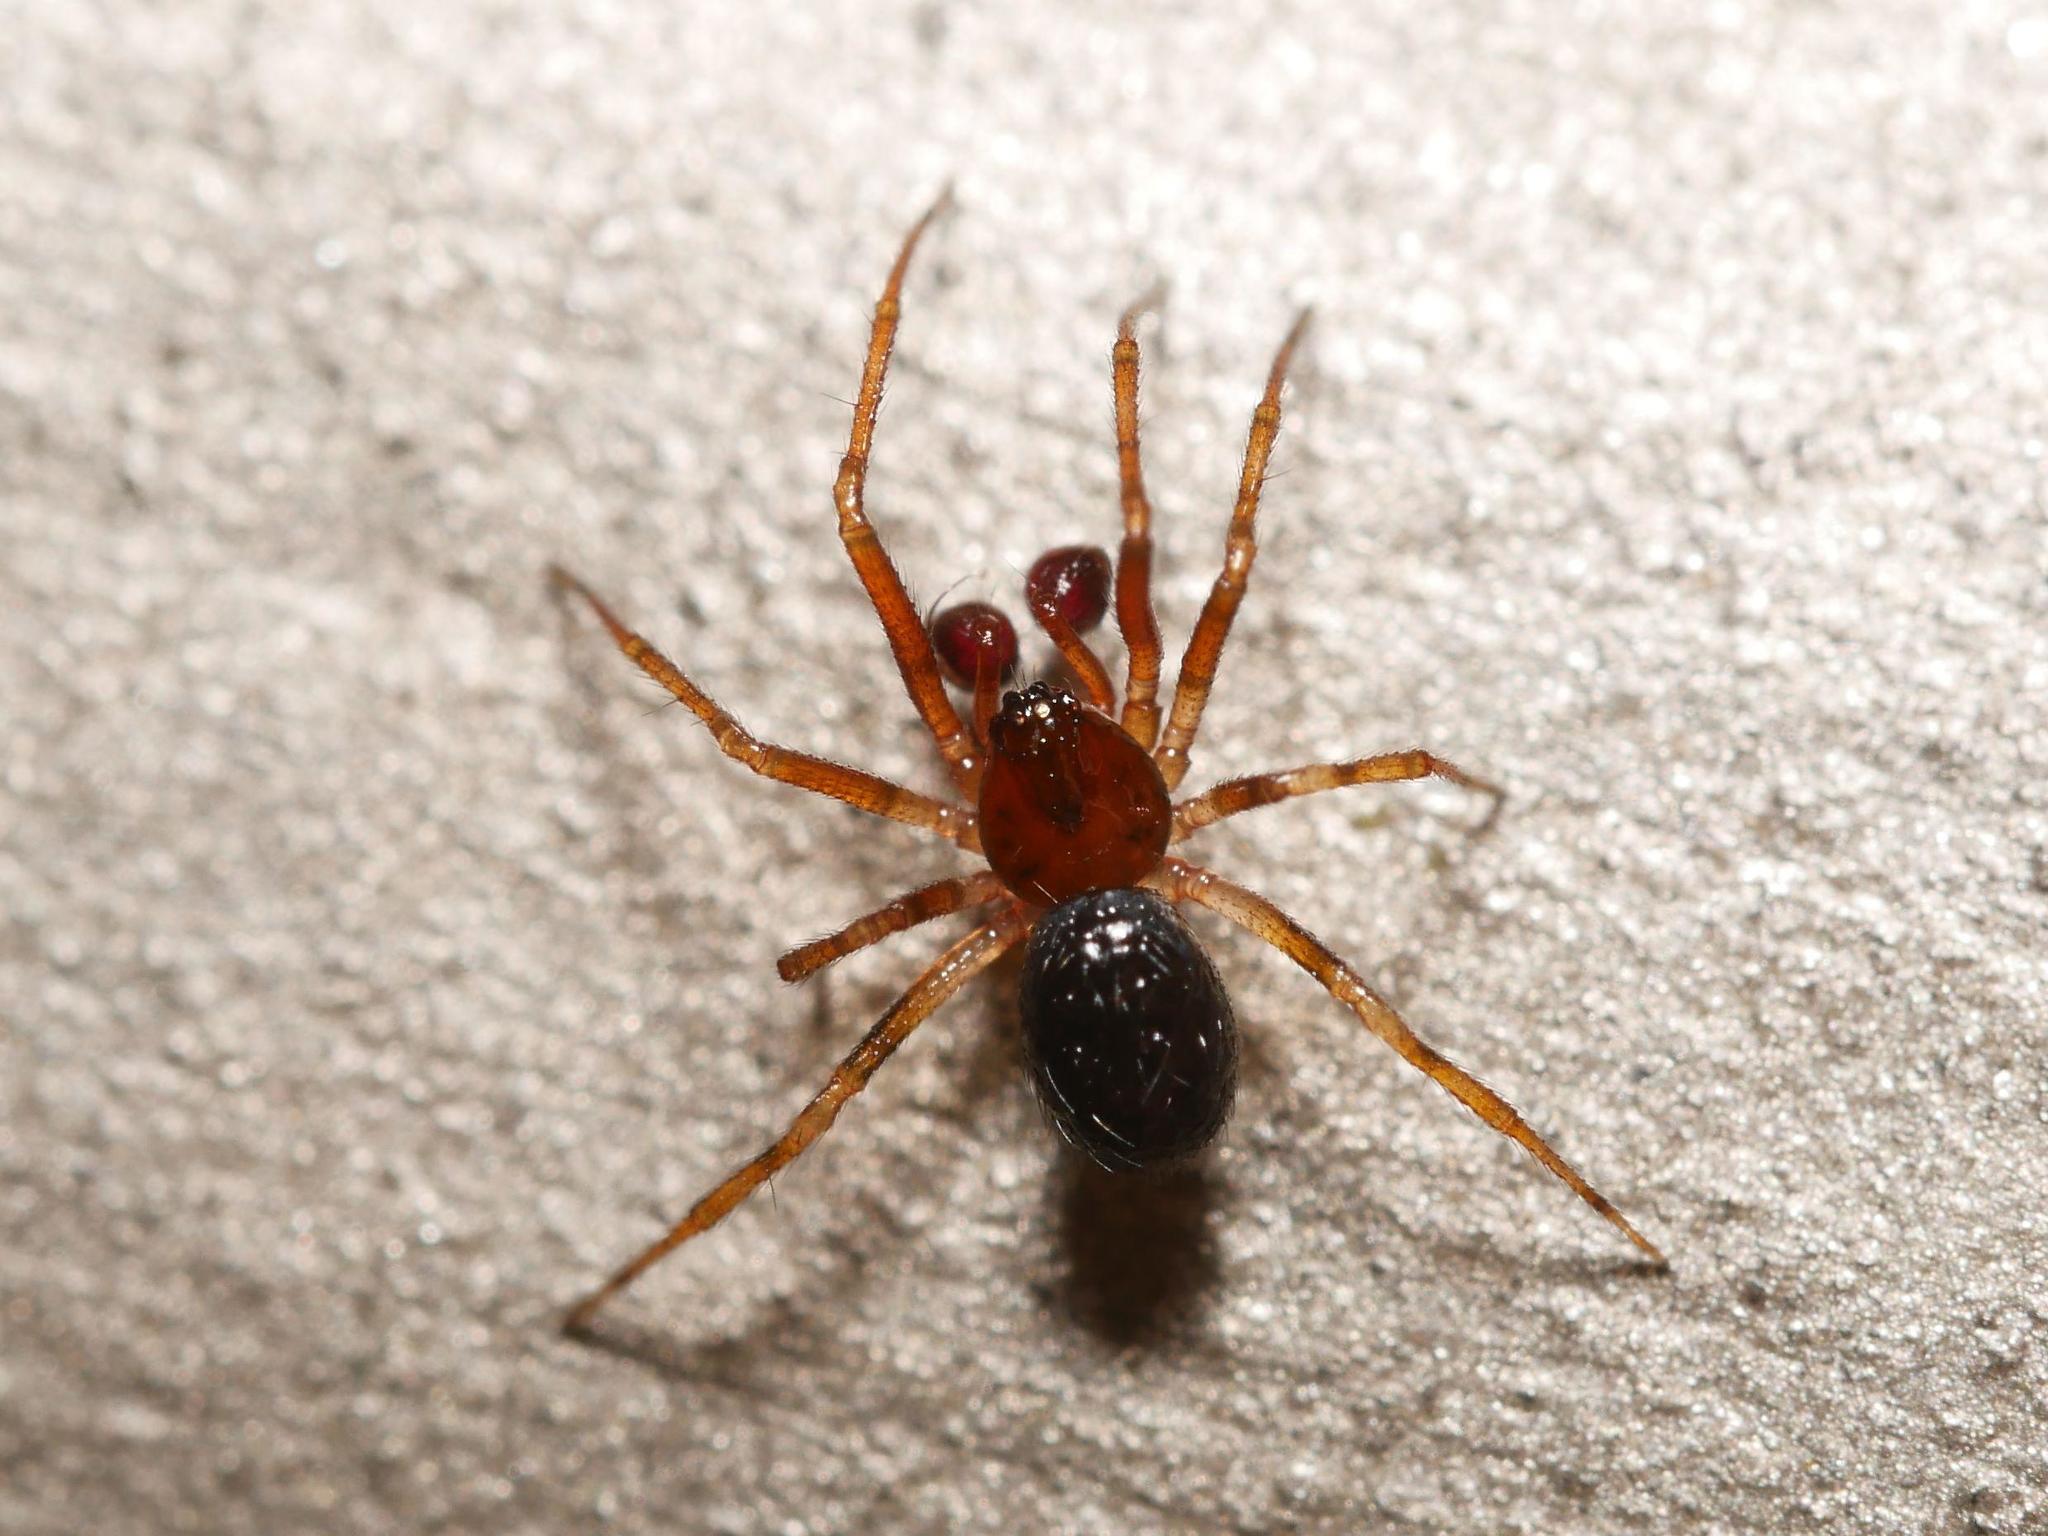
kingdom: Animalia
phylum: Arthropoda
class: Arachnida
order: Araneae
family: Theridiidae
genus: Sardinidion
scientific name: Sardinidion blackwalli
